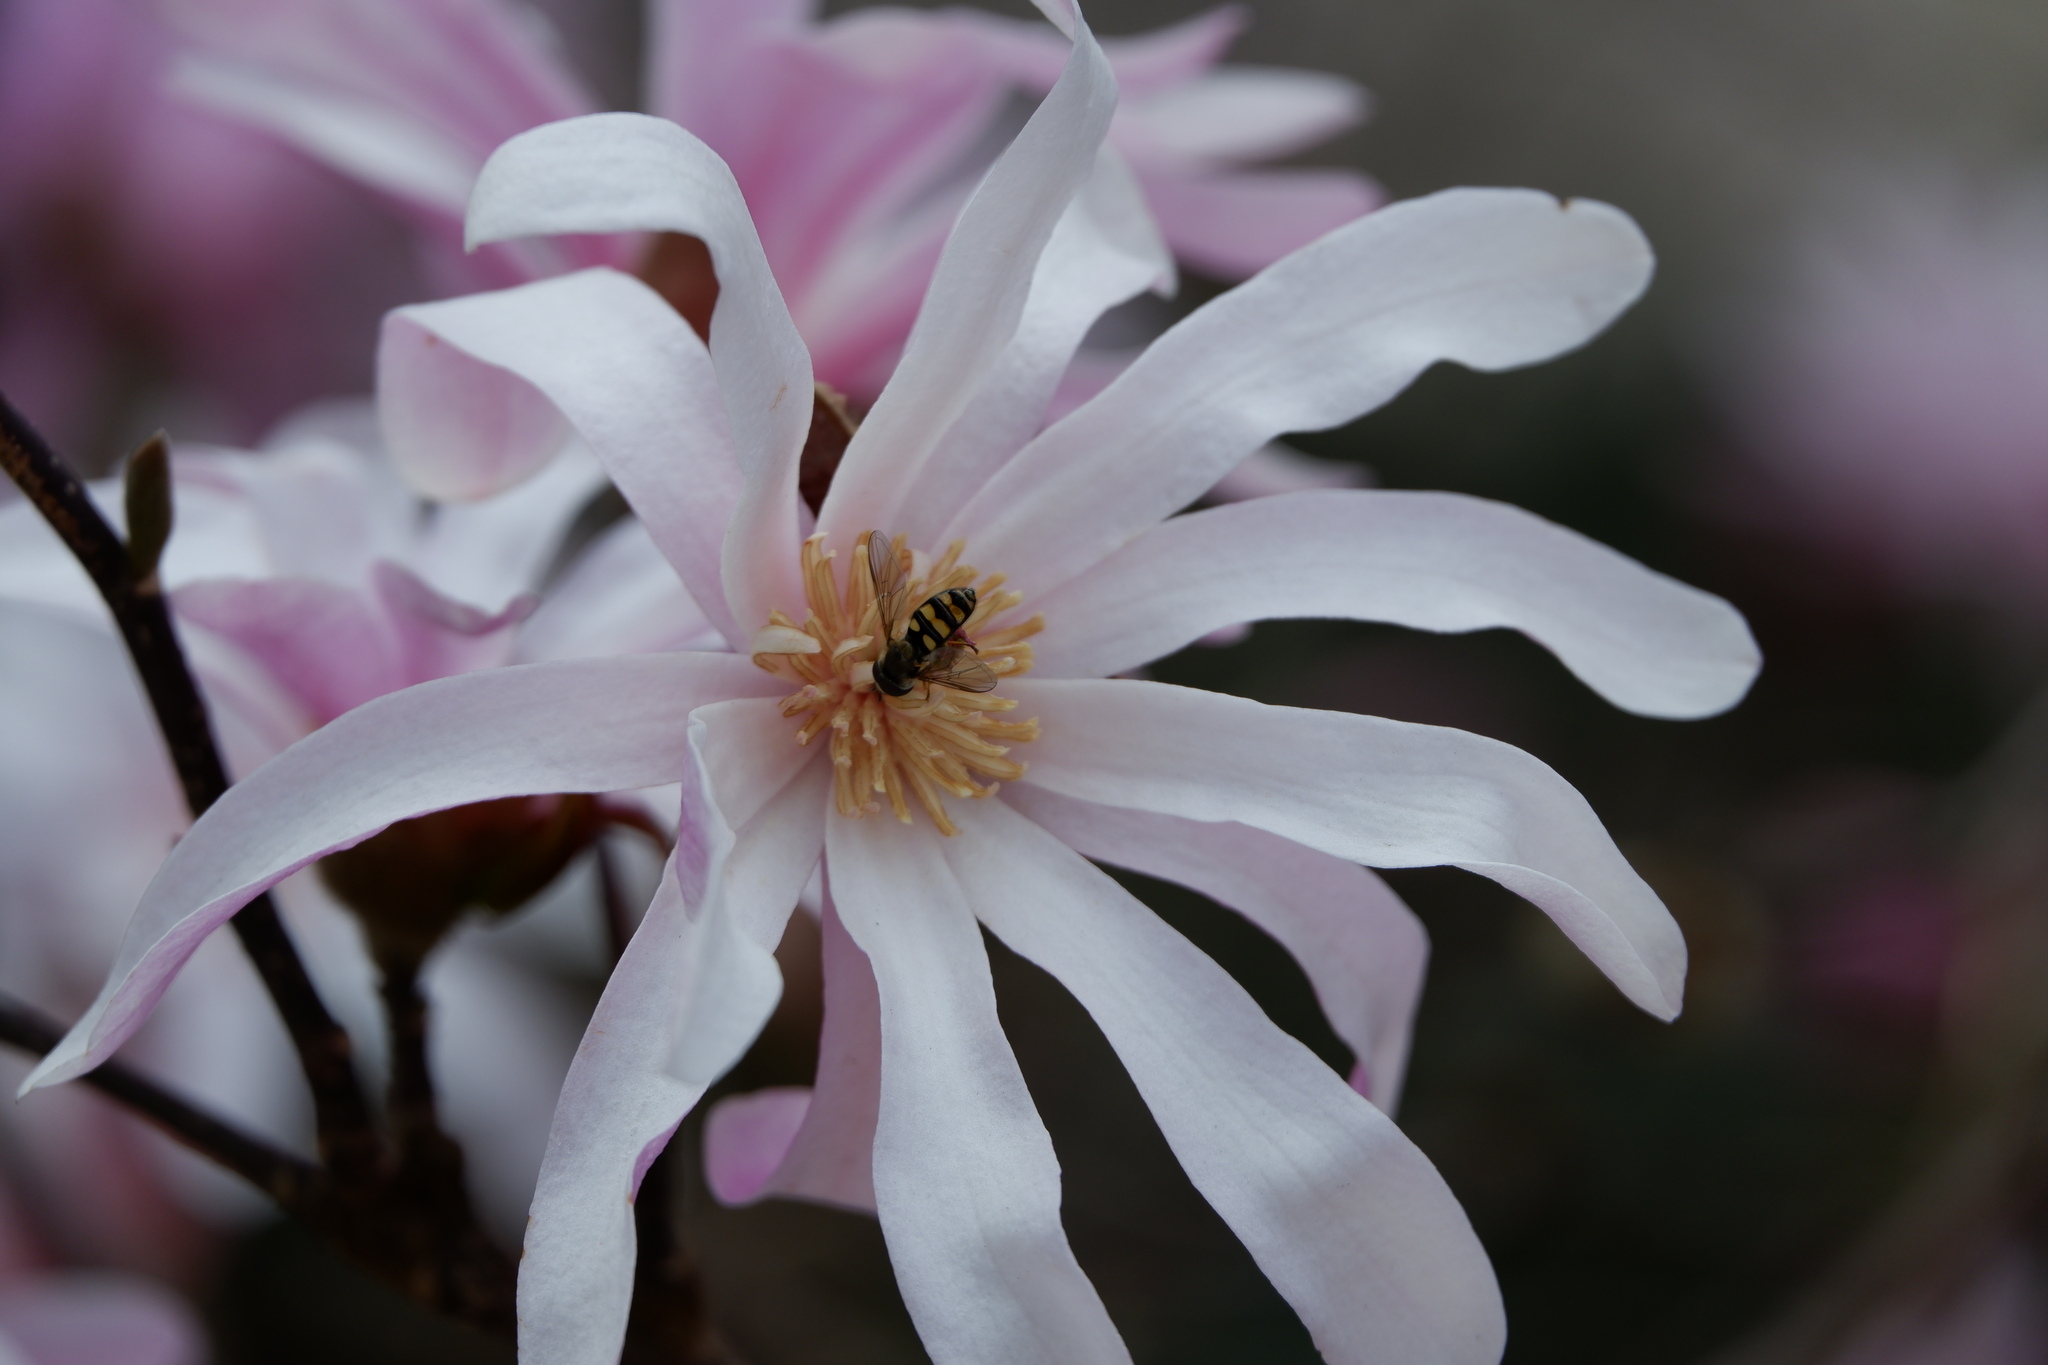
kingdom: Animalia
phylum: Arthropoda
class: Insecta
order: Diptera
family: Syrphidae
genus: Eupeodes
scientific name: Eupeodes
